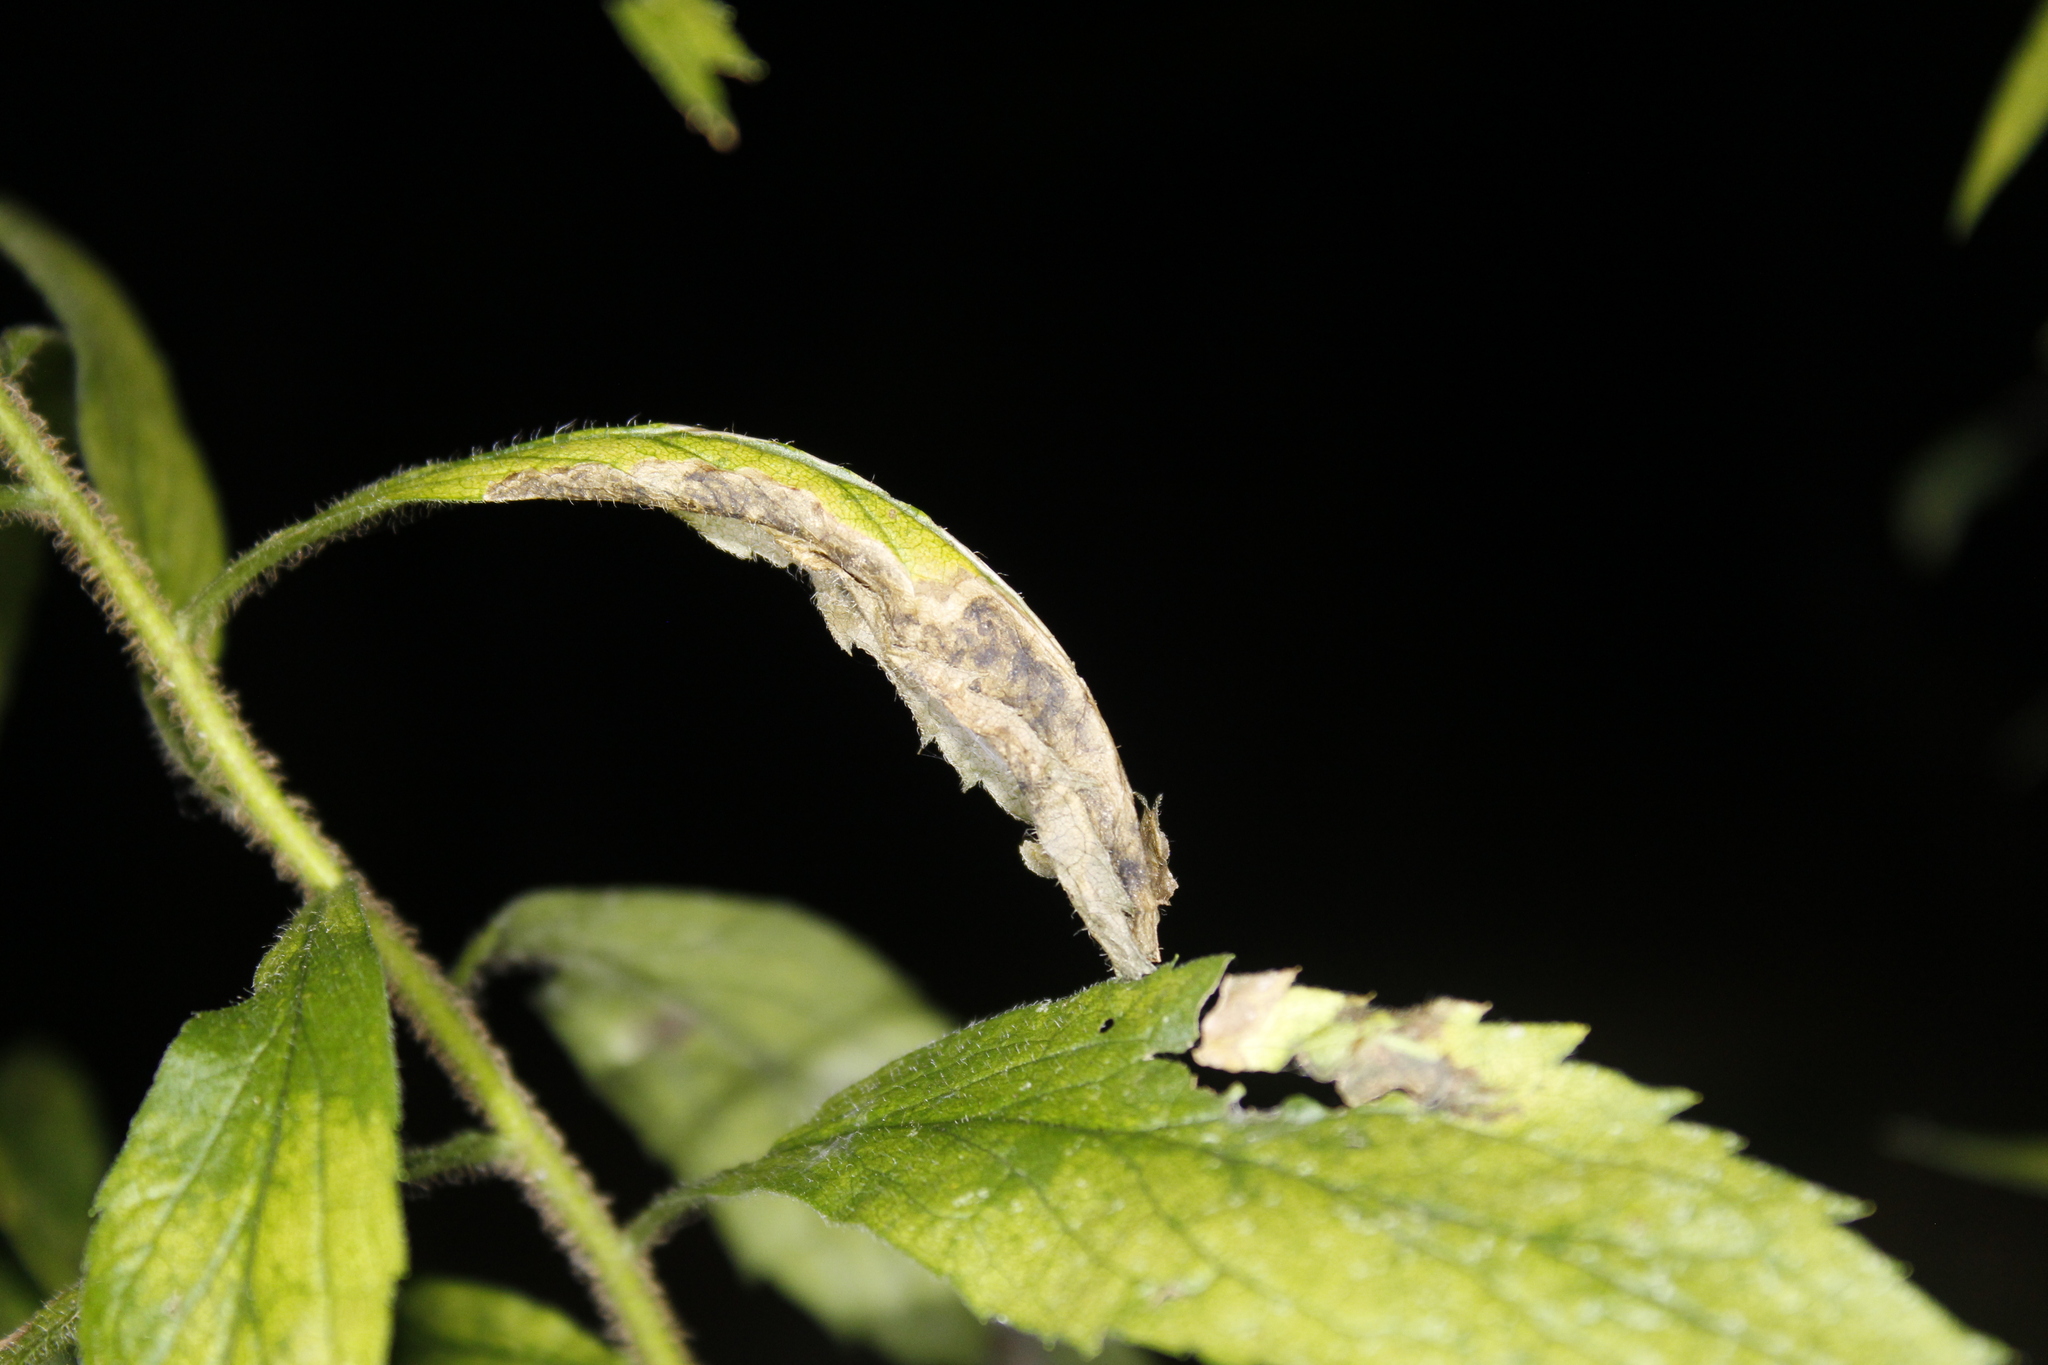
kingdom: Animalia
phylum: Arthropoda
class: Insecta
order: Diptera
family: Agromyzidae
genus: Nemorimyza
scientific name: Nemorimyza posticata
